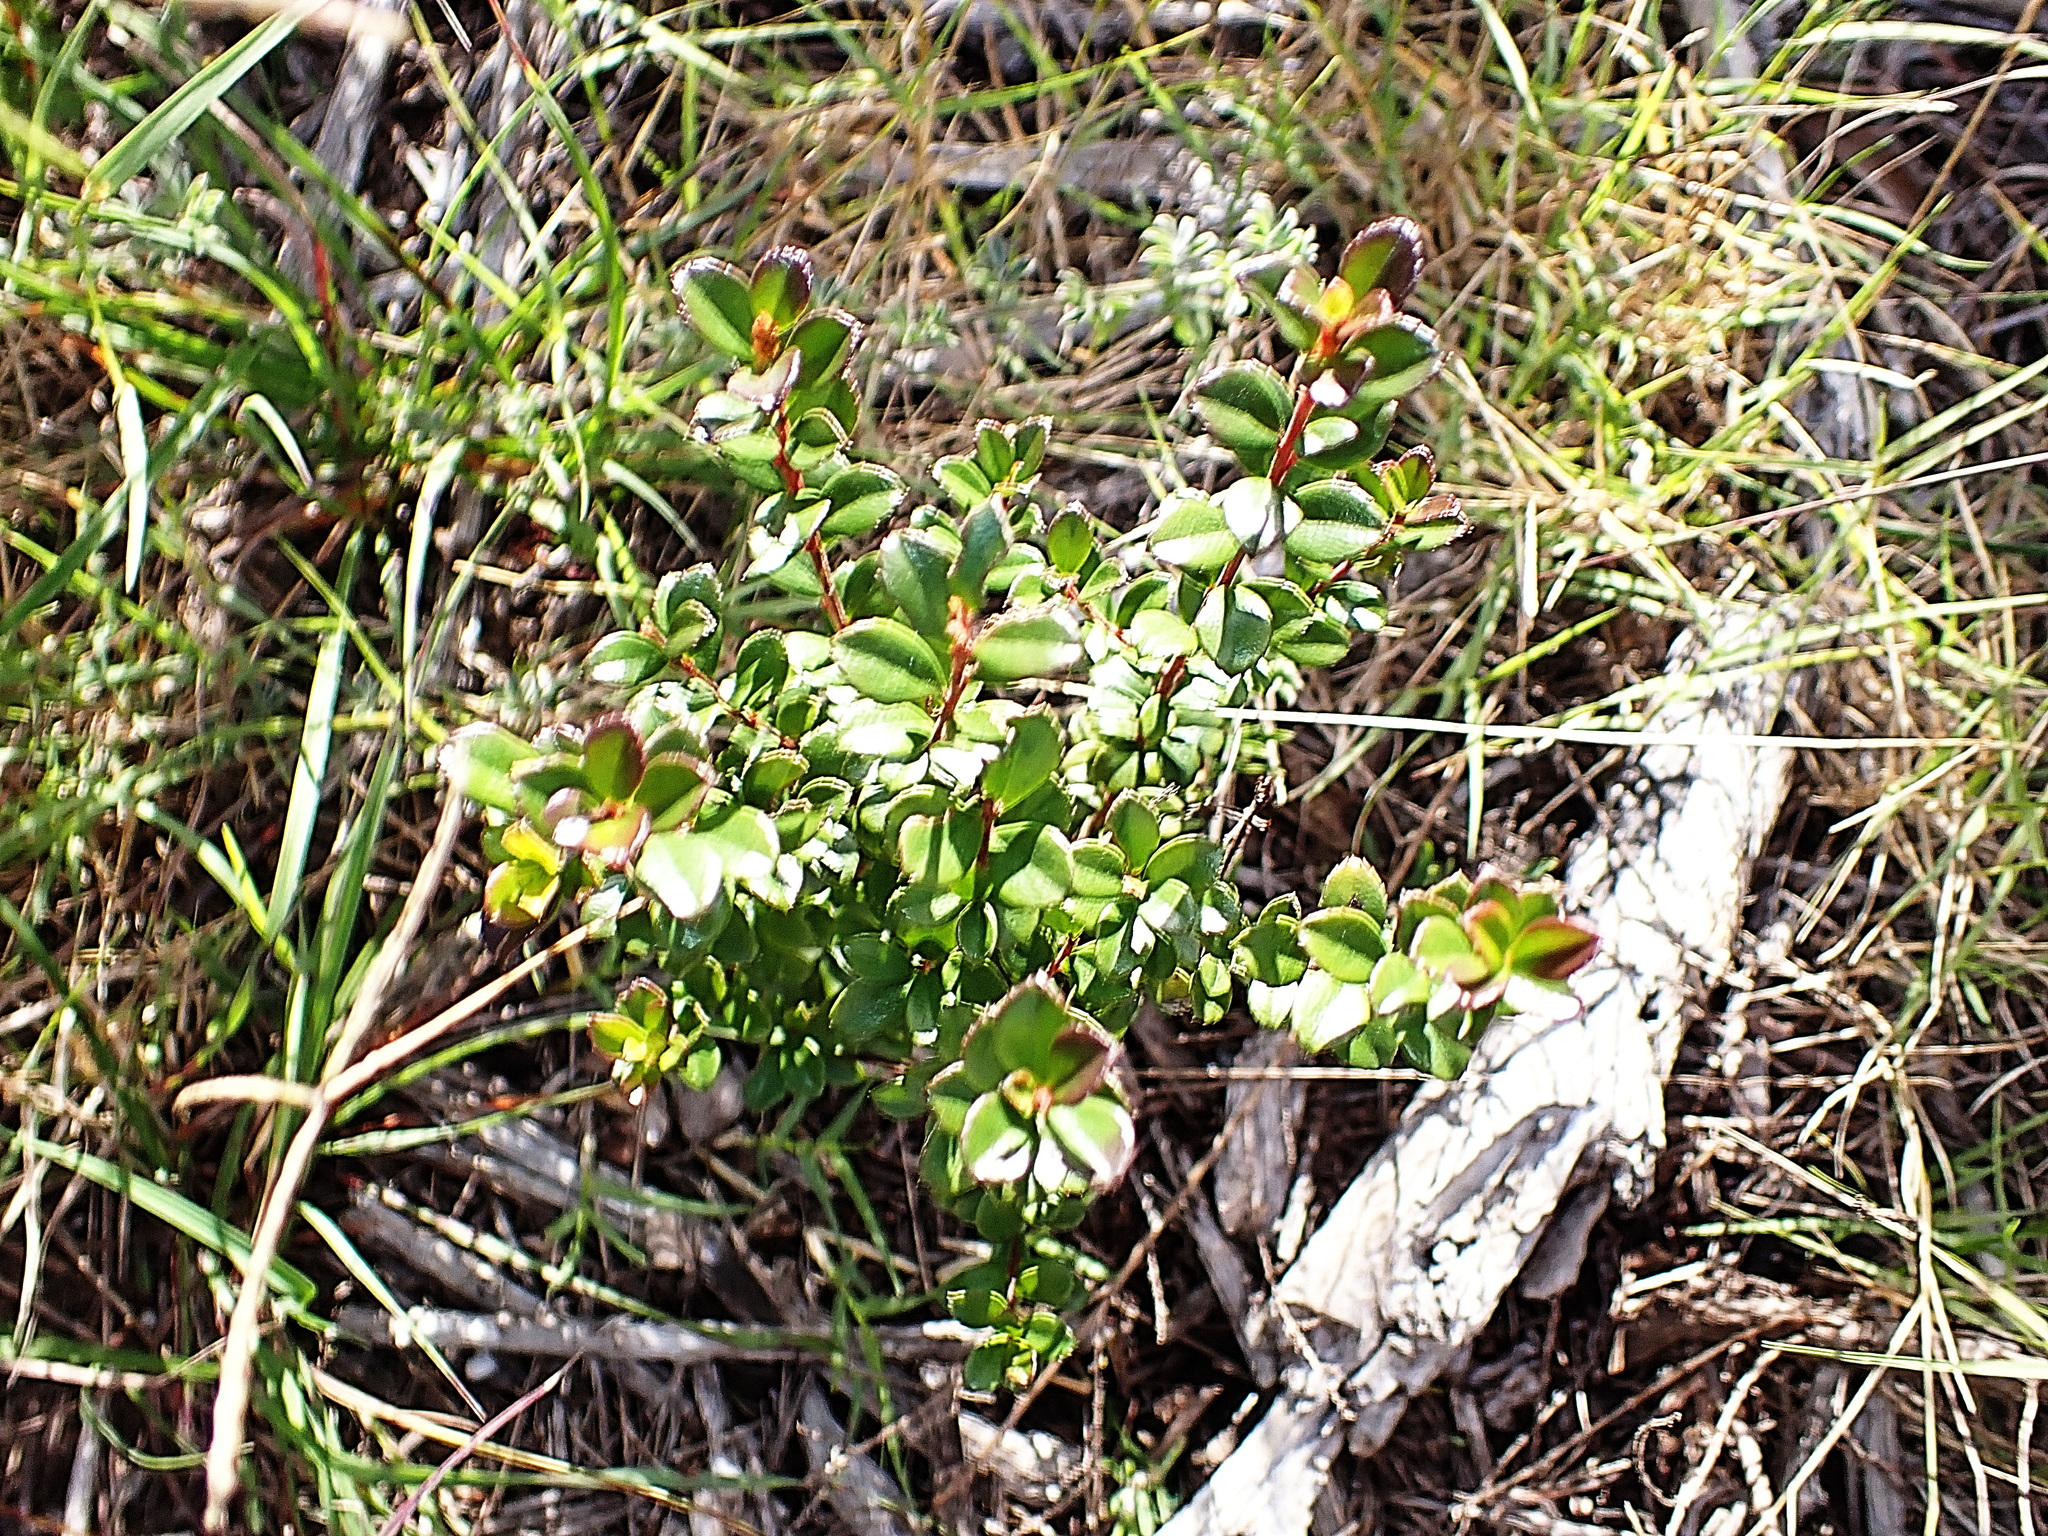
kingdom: Plantae
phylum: Tracheophyta
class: Magnoliopsida
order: Ericales
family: Primulaceae
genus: Myrsine
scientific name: Myrsine africana
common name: African-boxwood
